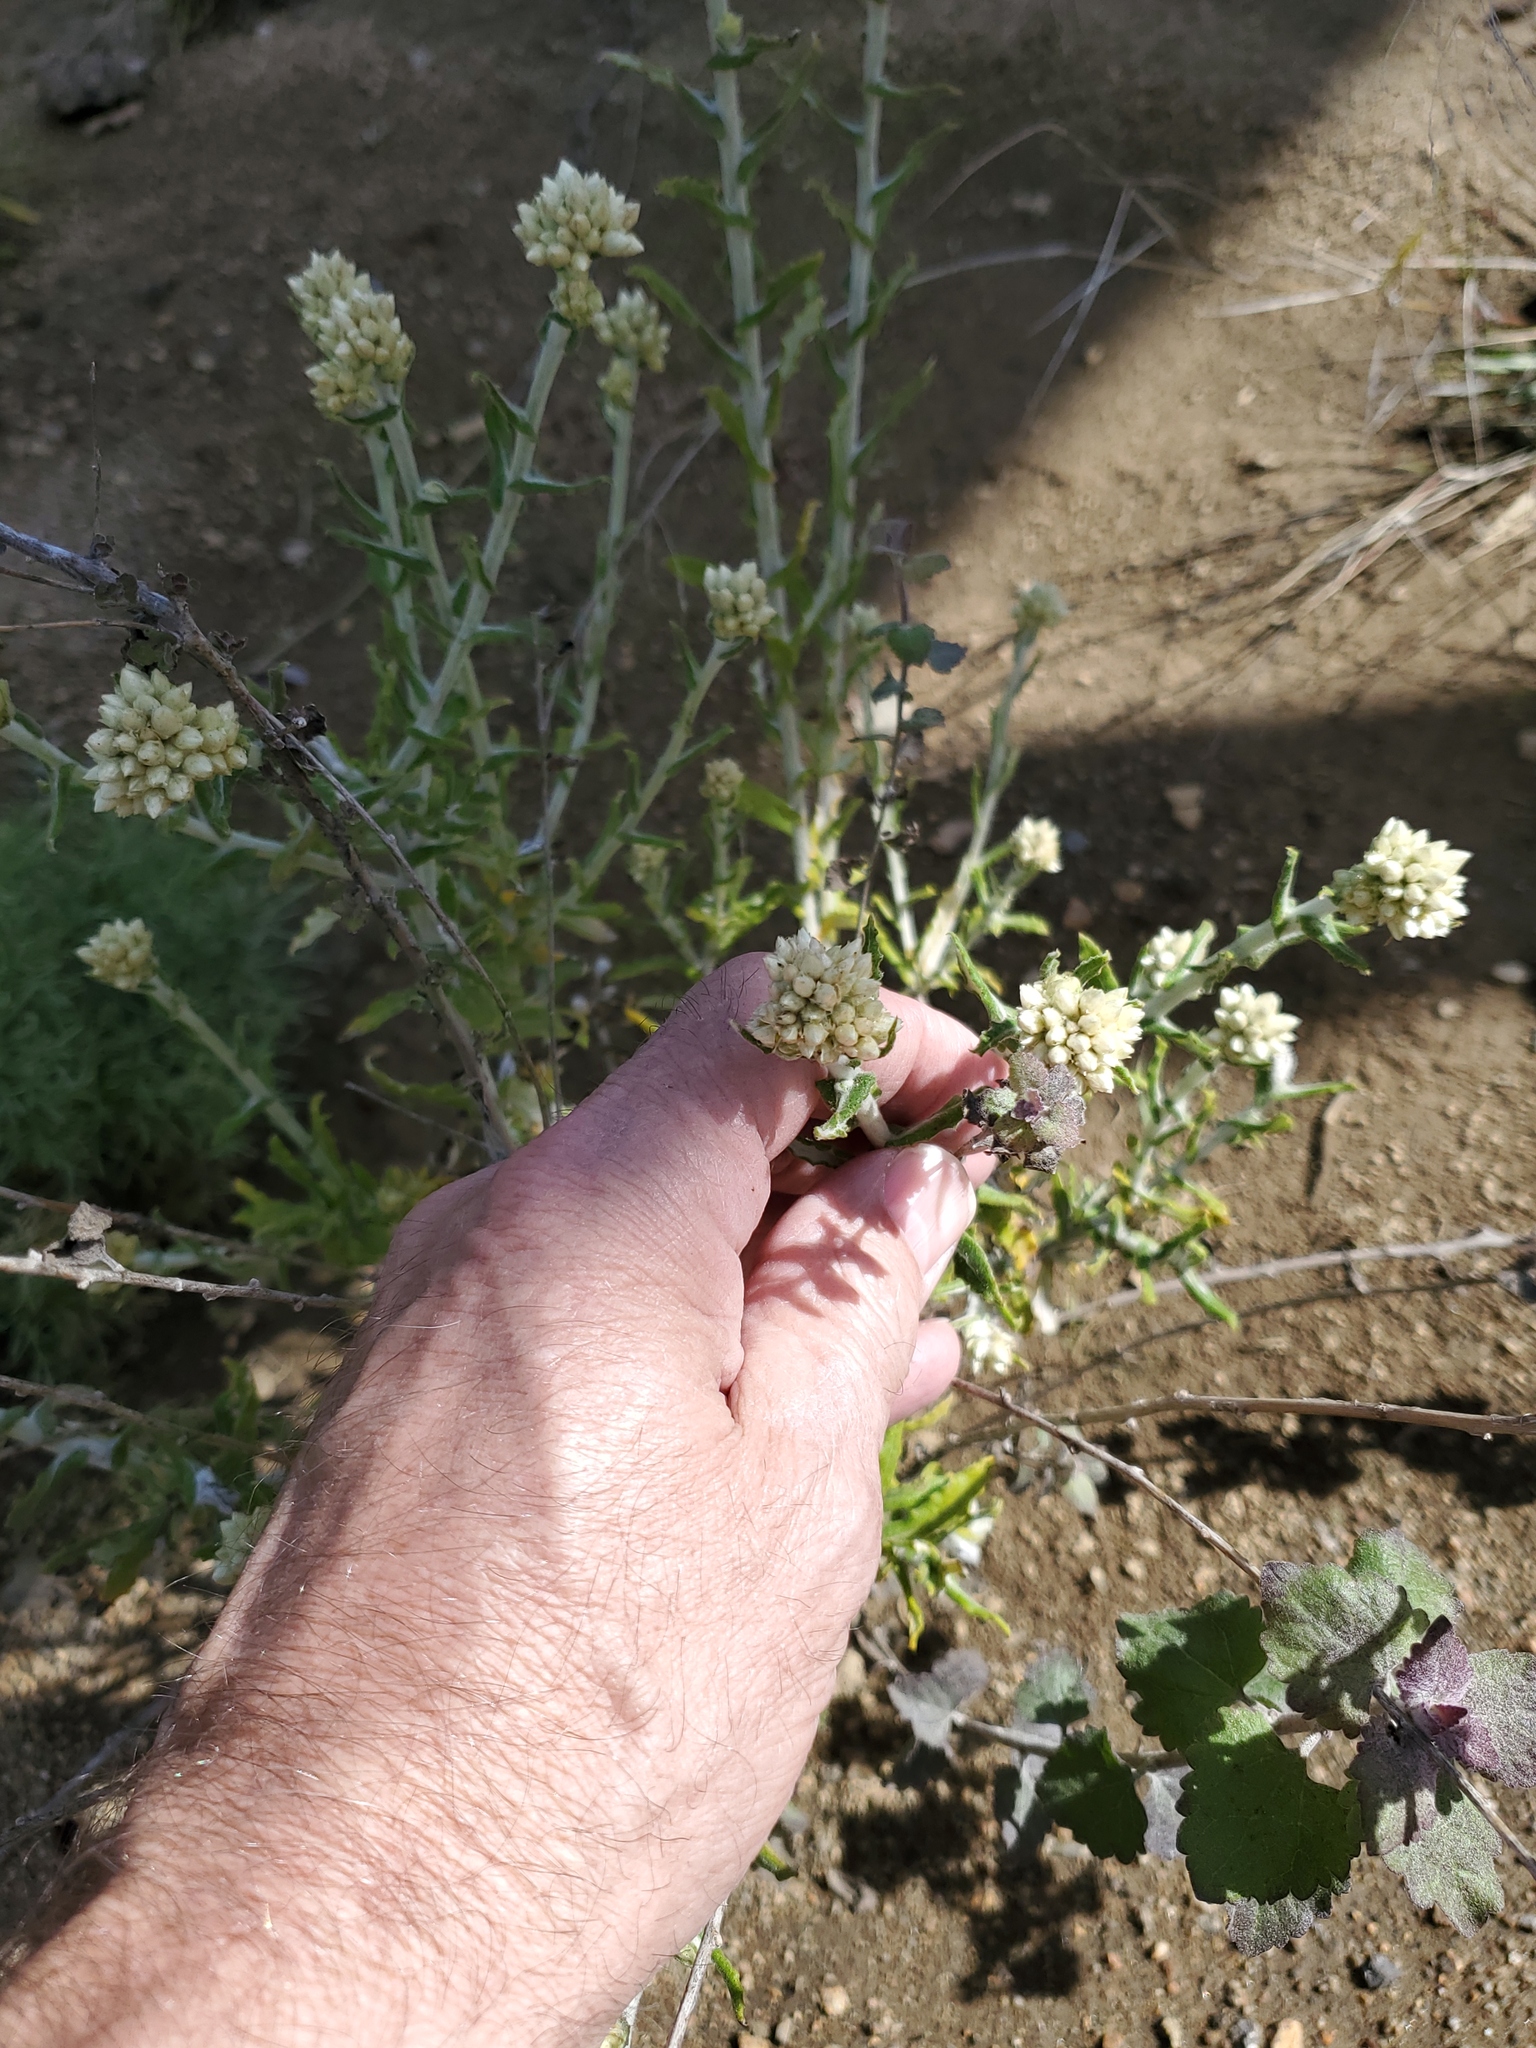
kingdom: Plantae
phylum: Tracheophyta
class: Magnoliopsida
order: Asterales
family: Asteraceae
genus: Pseudognaphalium
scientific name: Pseudognaphalium biolettii
